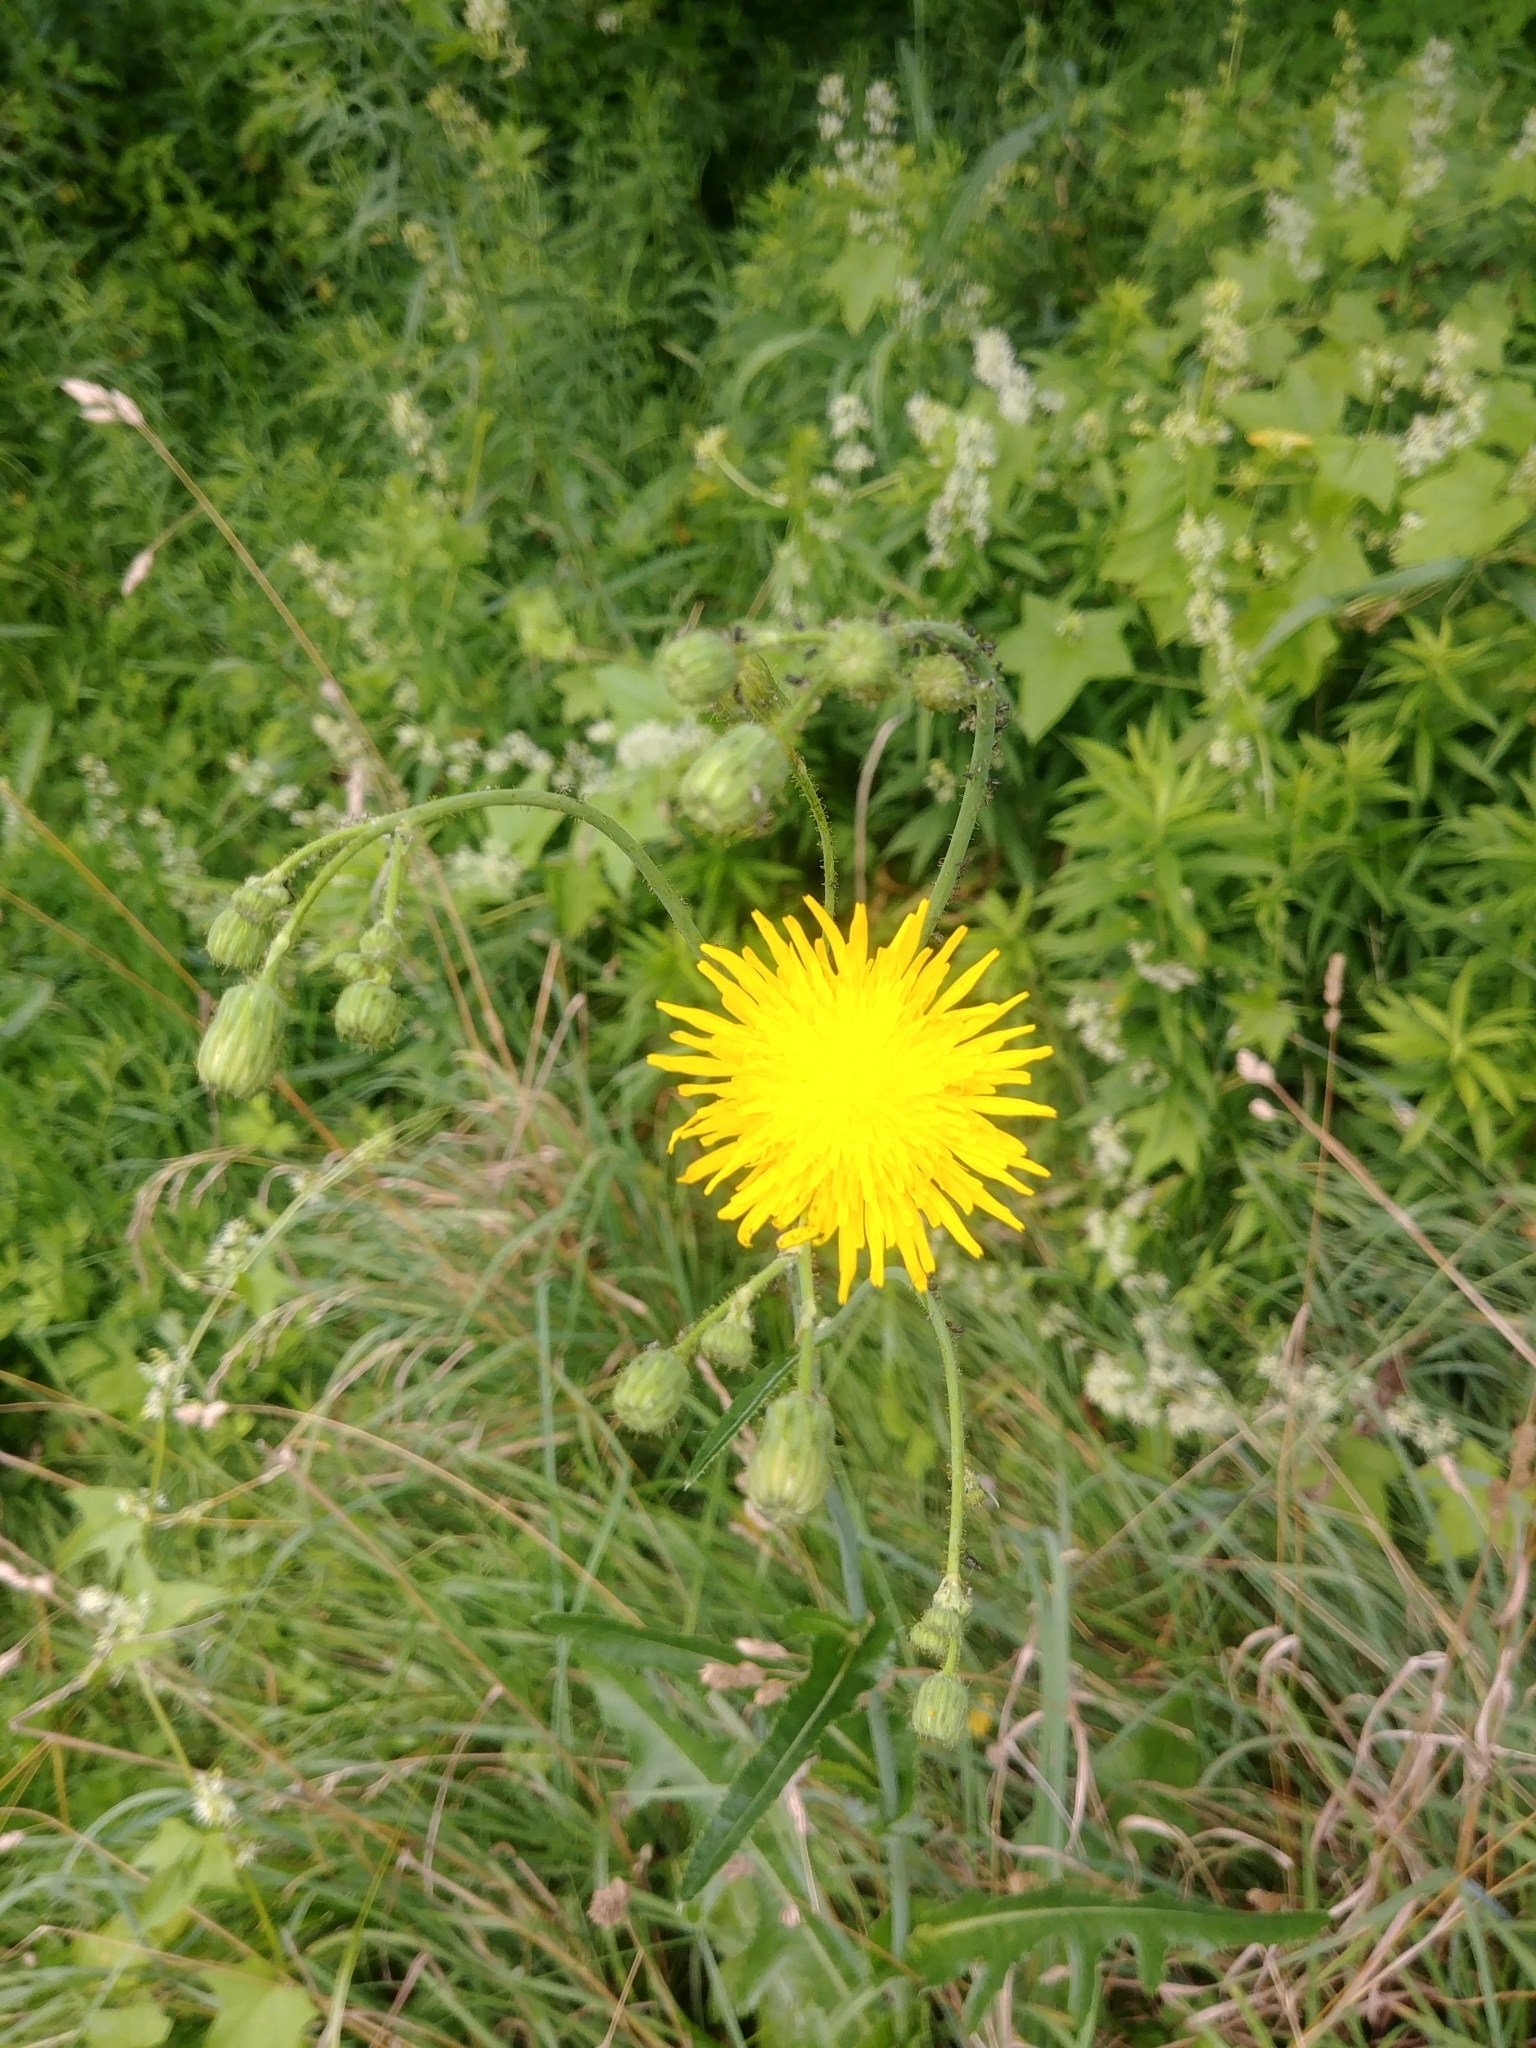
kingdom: Plantae
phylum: Tracheophyta
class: Magnoliopsida
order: Asterales
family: Asteraceae
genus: Sonchus
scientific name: Sonchus arvensis
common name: Perennial sow-thistle
